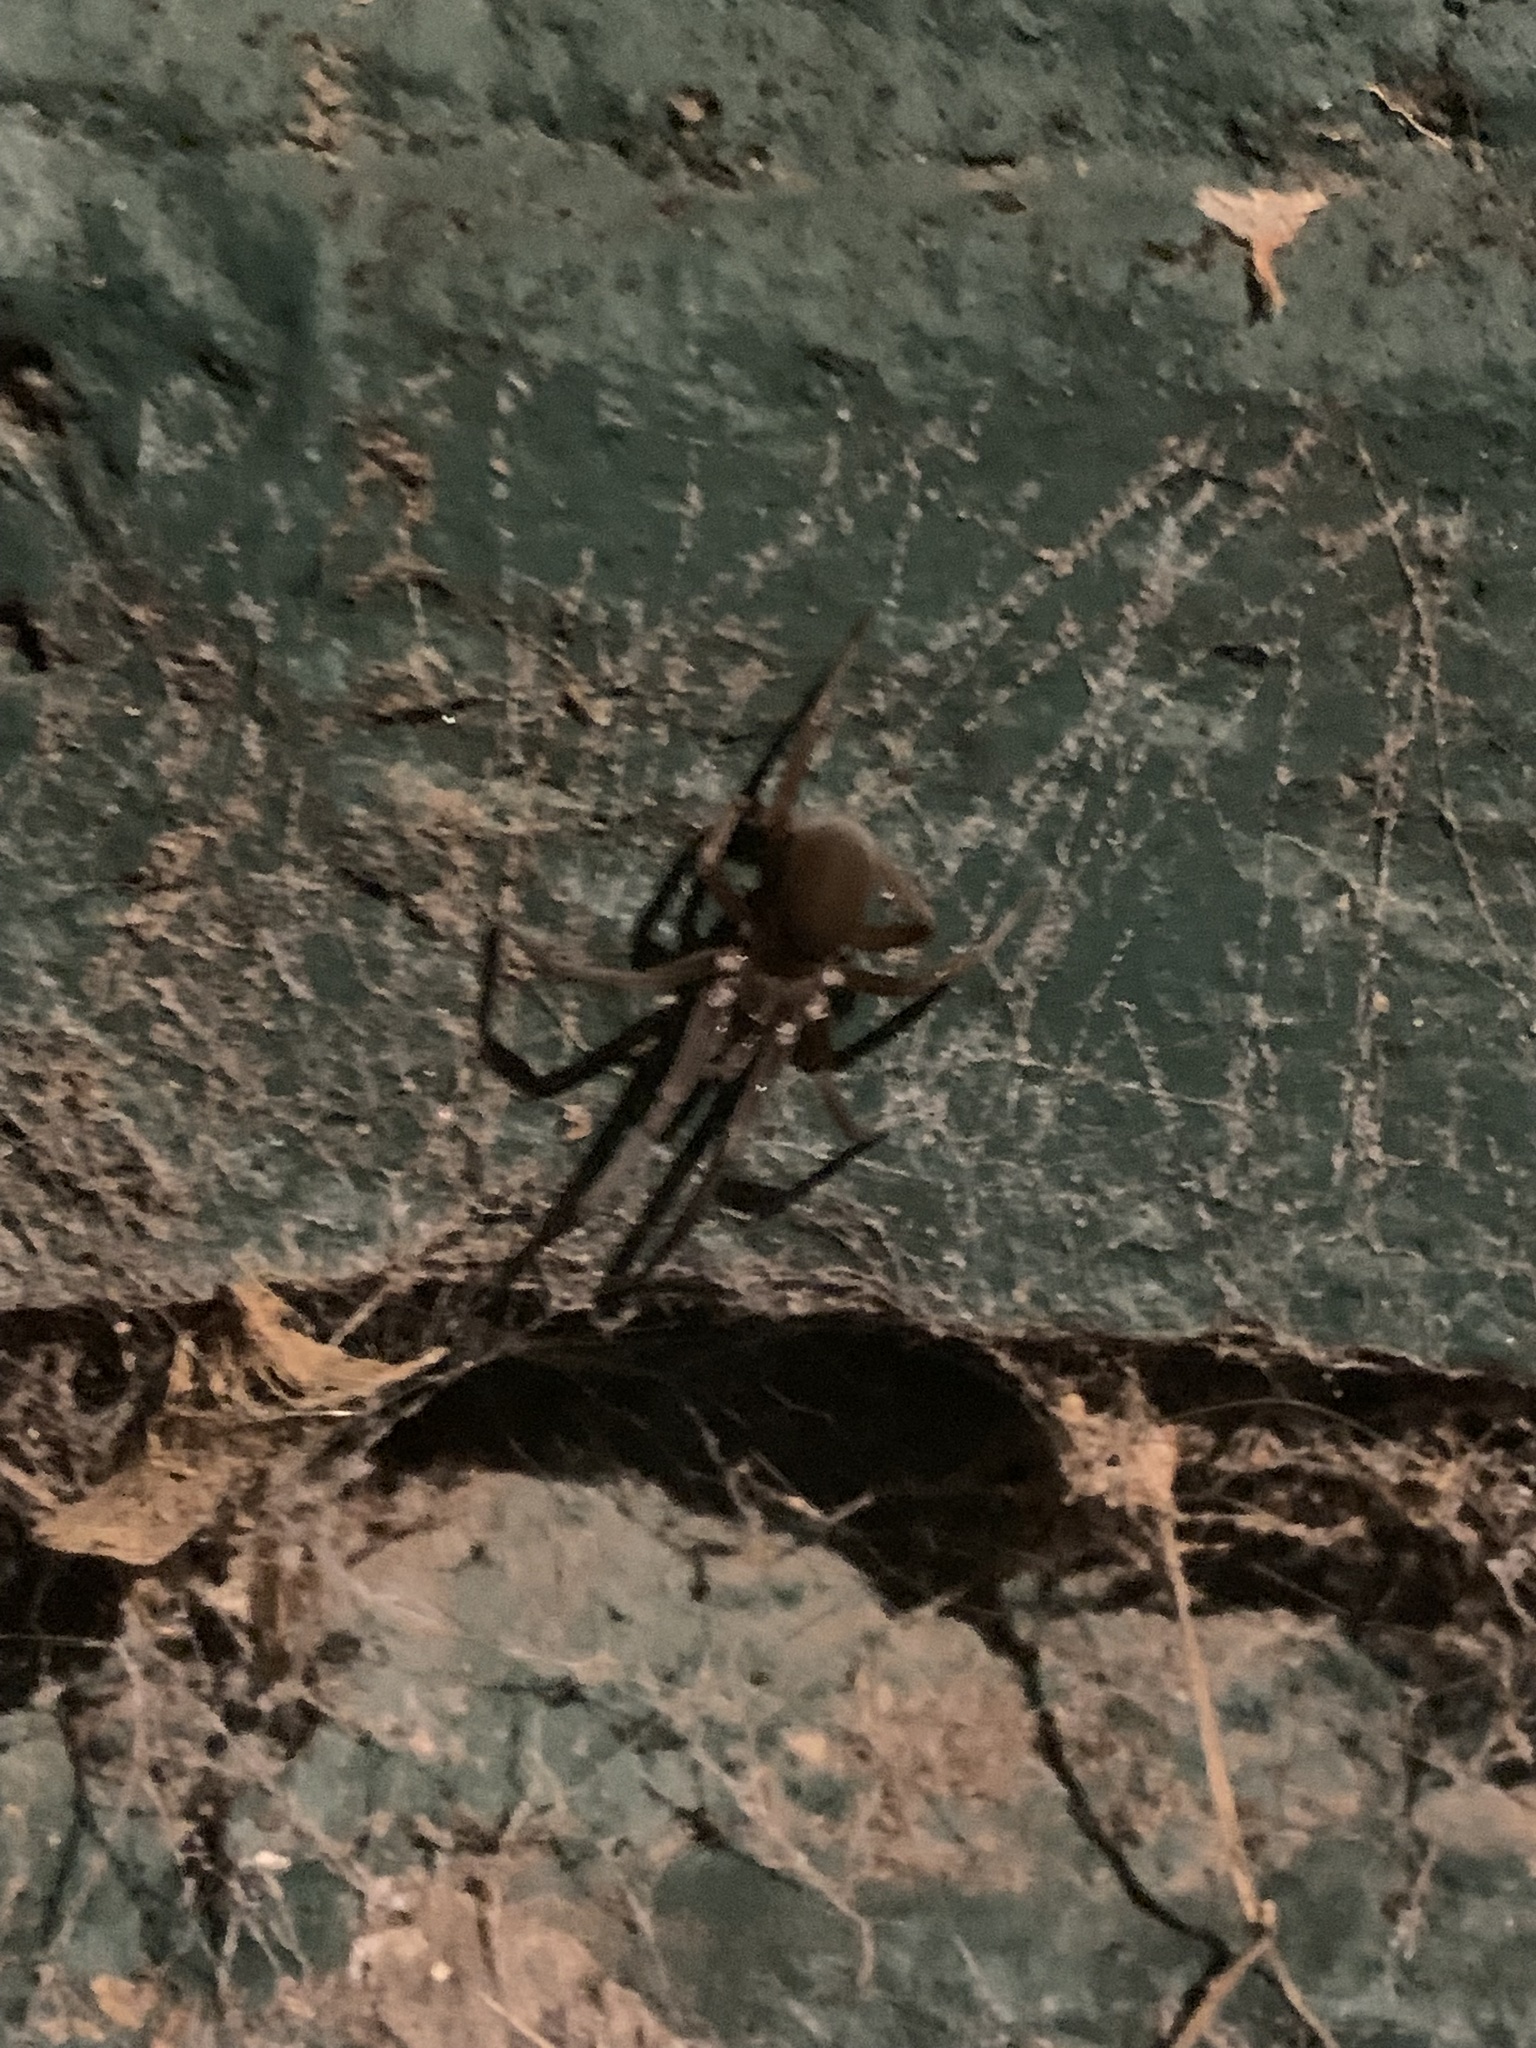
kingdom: Animalia
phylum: Arthropoda
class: Arachnida
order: Araneae
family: Filistatidae
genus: Kukulcania
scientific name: Kukulcania hibernalis
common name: Crevice weaver
